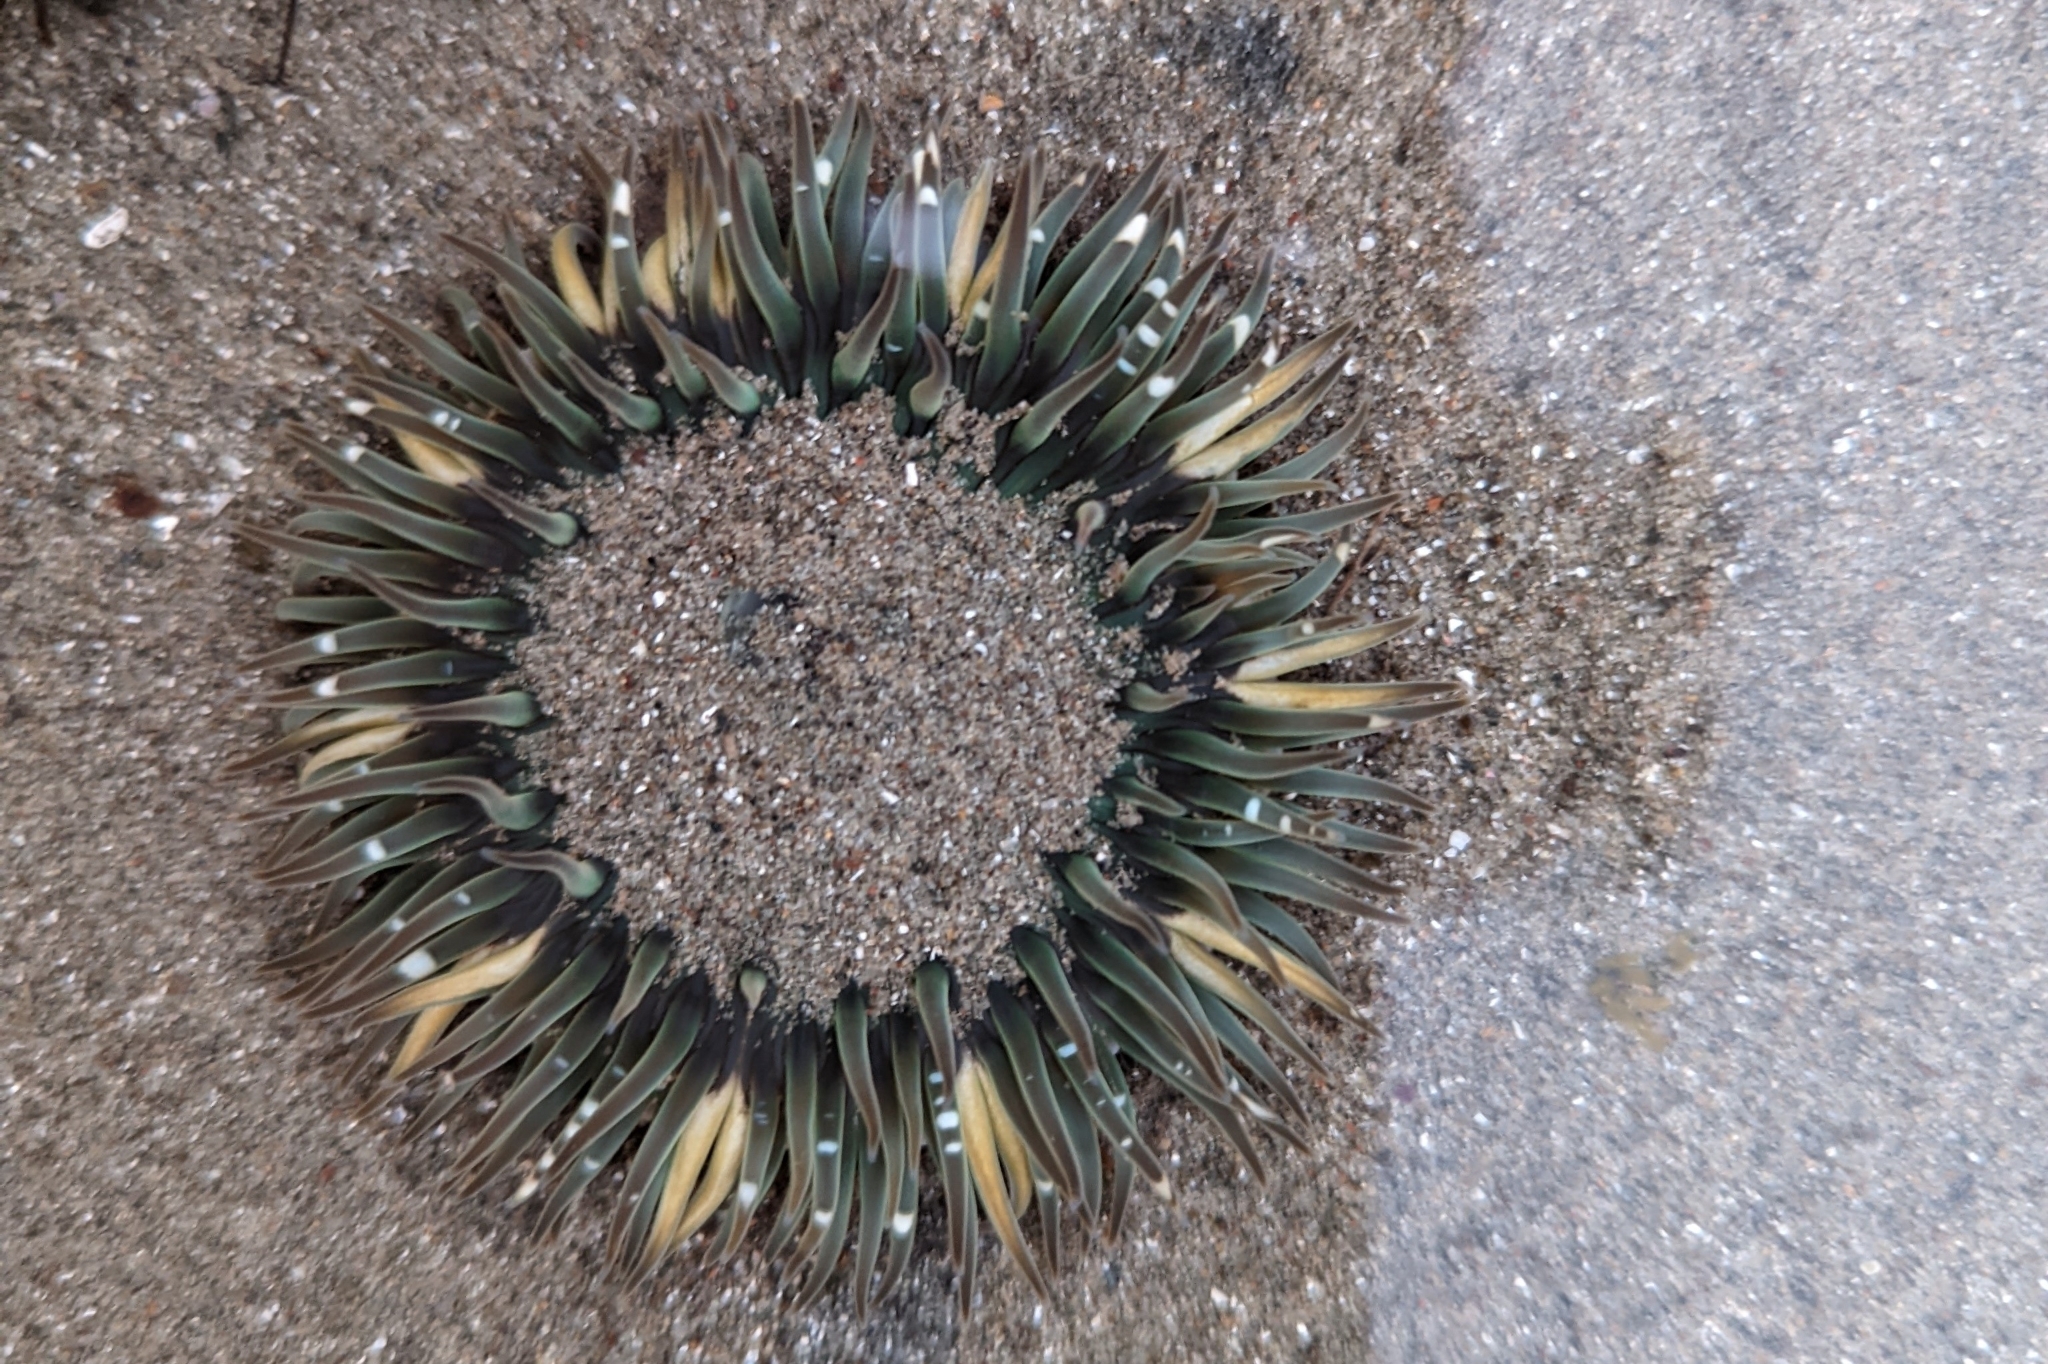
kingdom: Animalia
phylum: Cnidaria
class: Anthozoa
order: Actiniaria
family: Actiniidae
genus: Anthopleura
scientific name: Anthopleura sola
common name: Sun anemone
